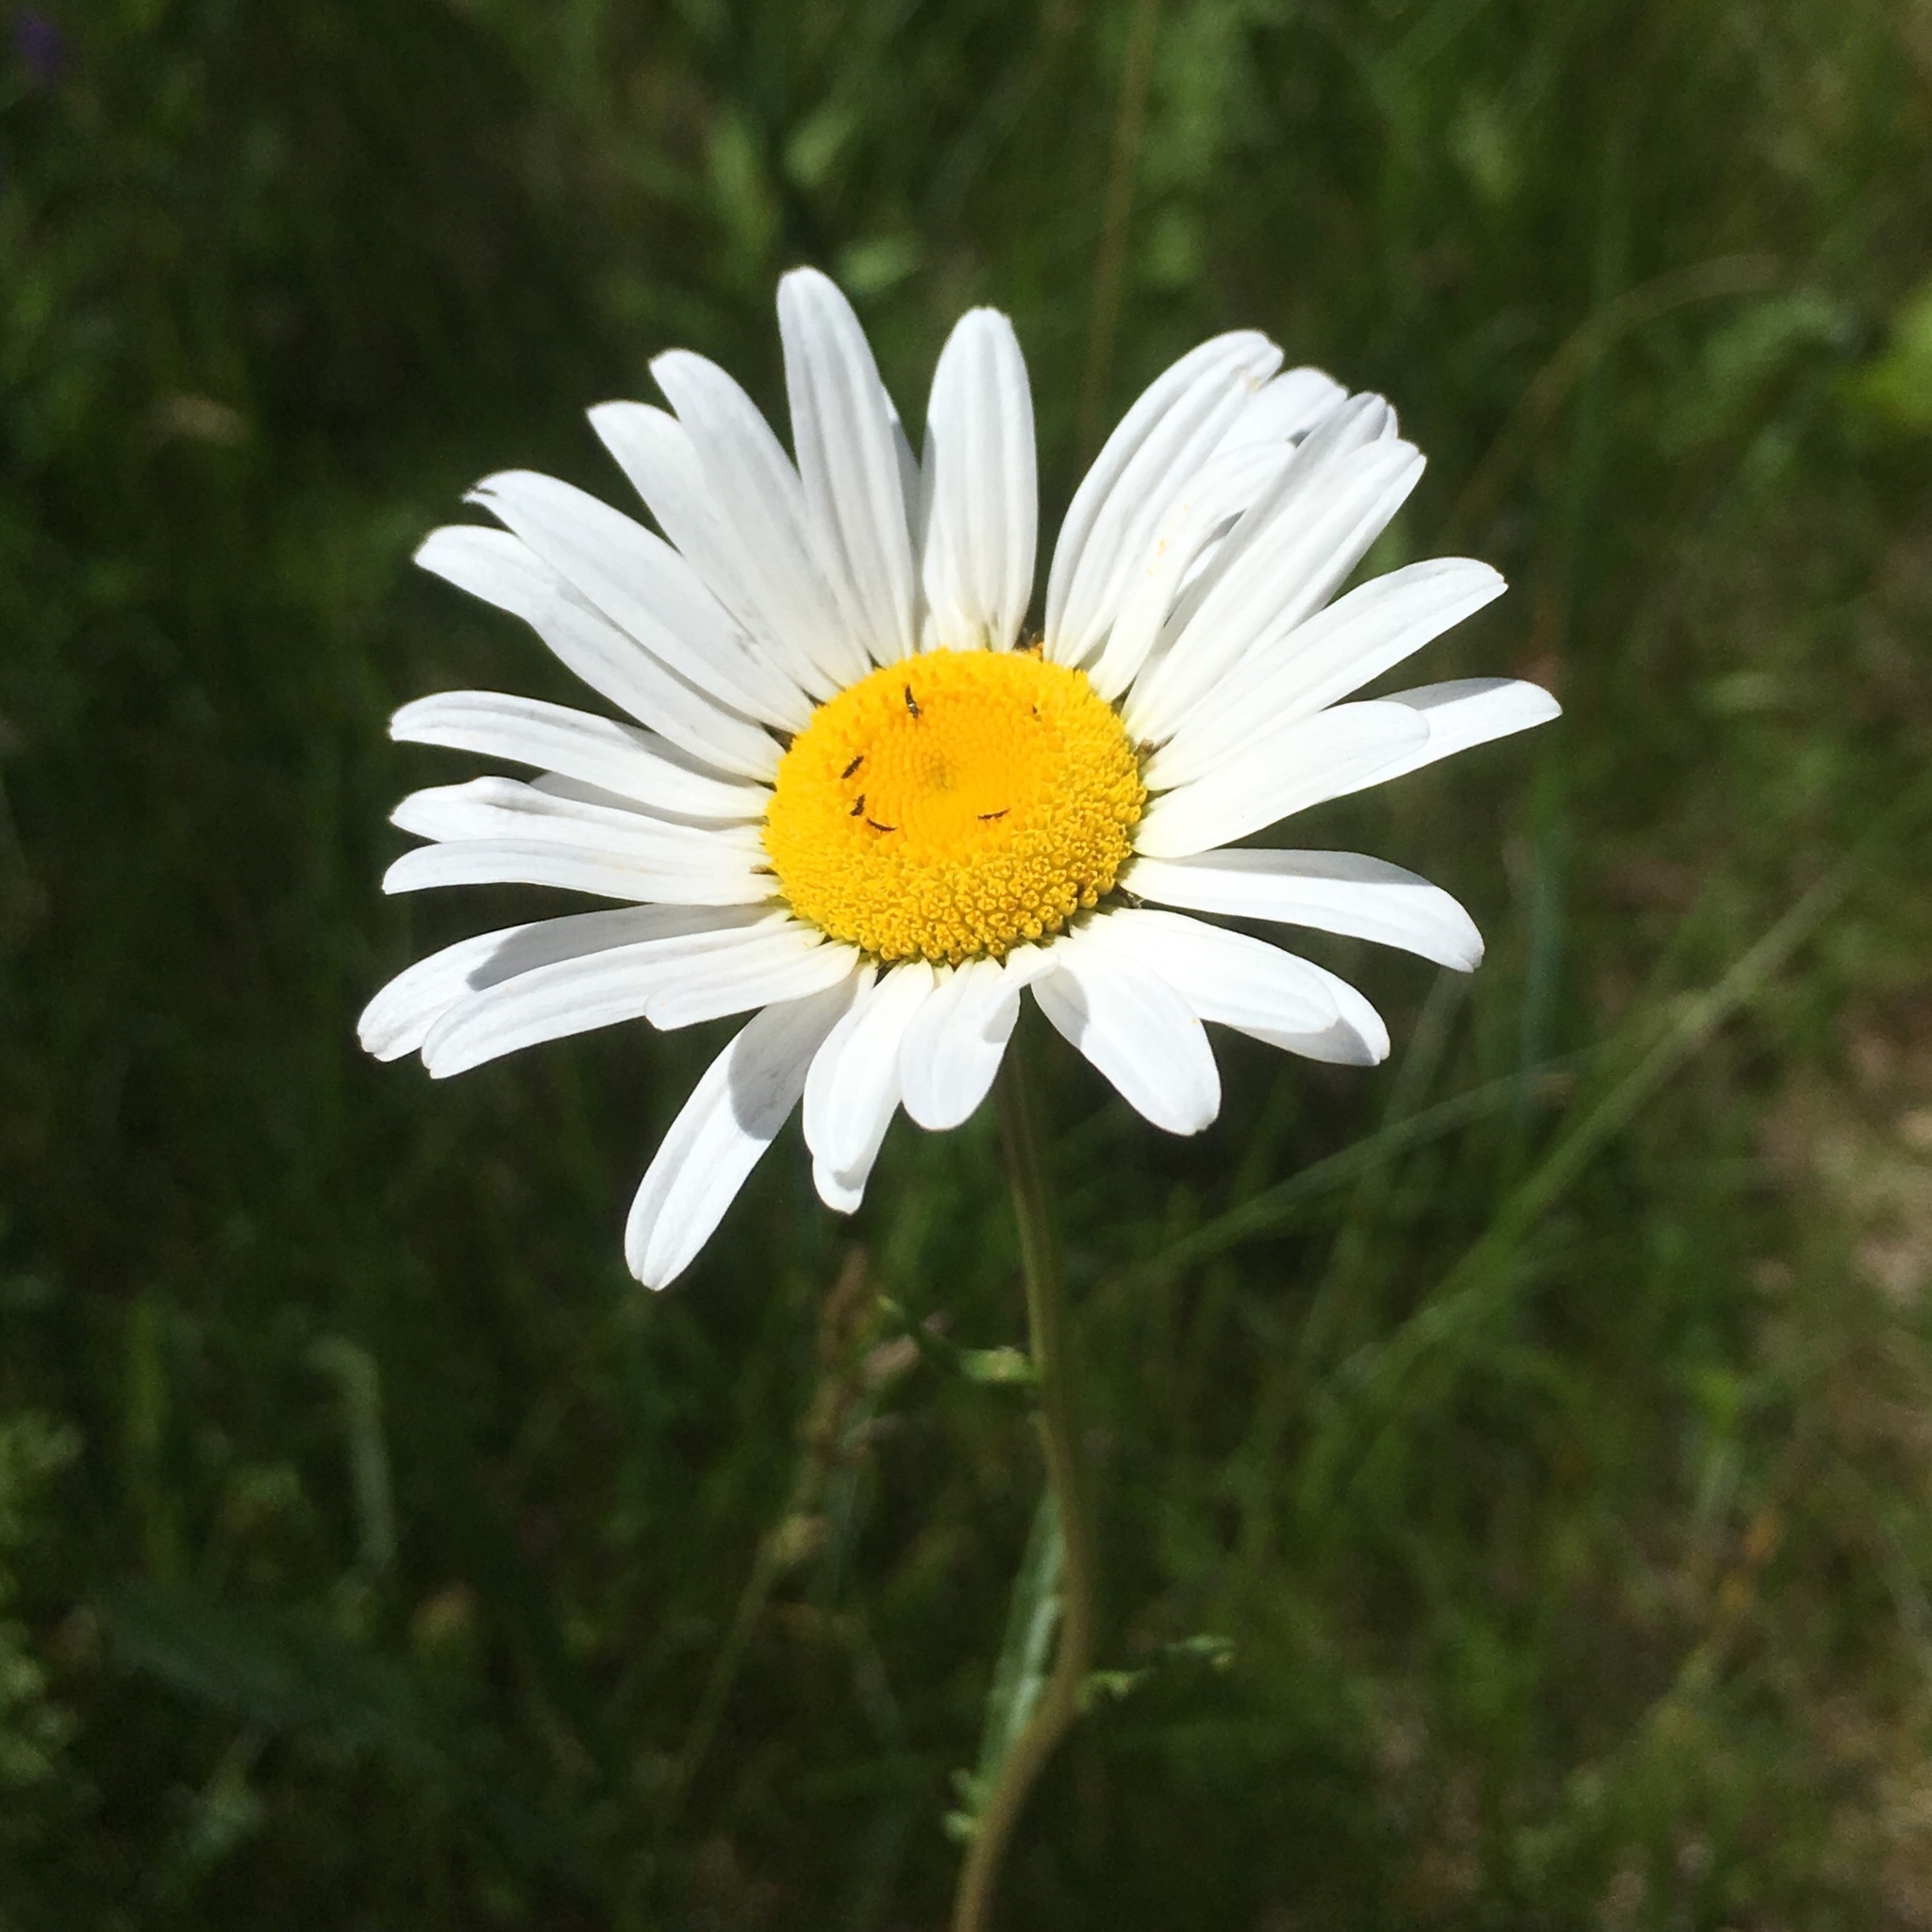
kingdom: Plantae
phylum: Tracheophyta
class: Magnoliopsida
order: Asterales
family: Asteraceae
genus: Leucanthemum
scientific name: Leucanthemum vulgare
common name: Oxeye daisy
